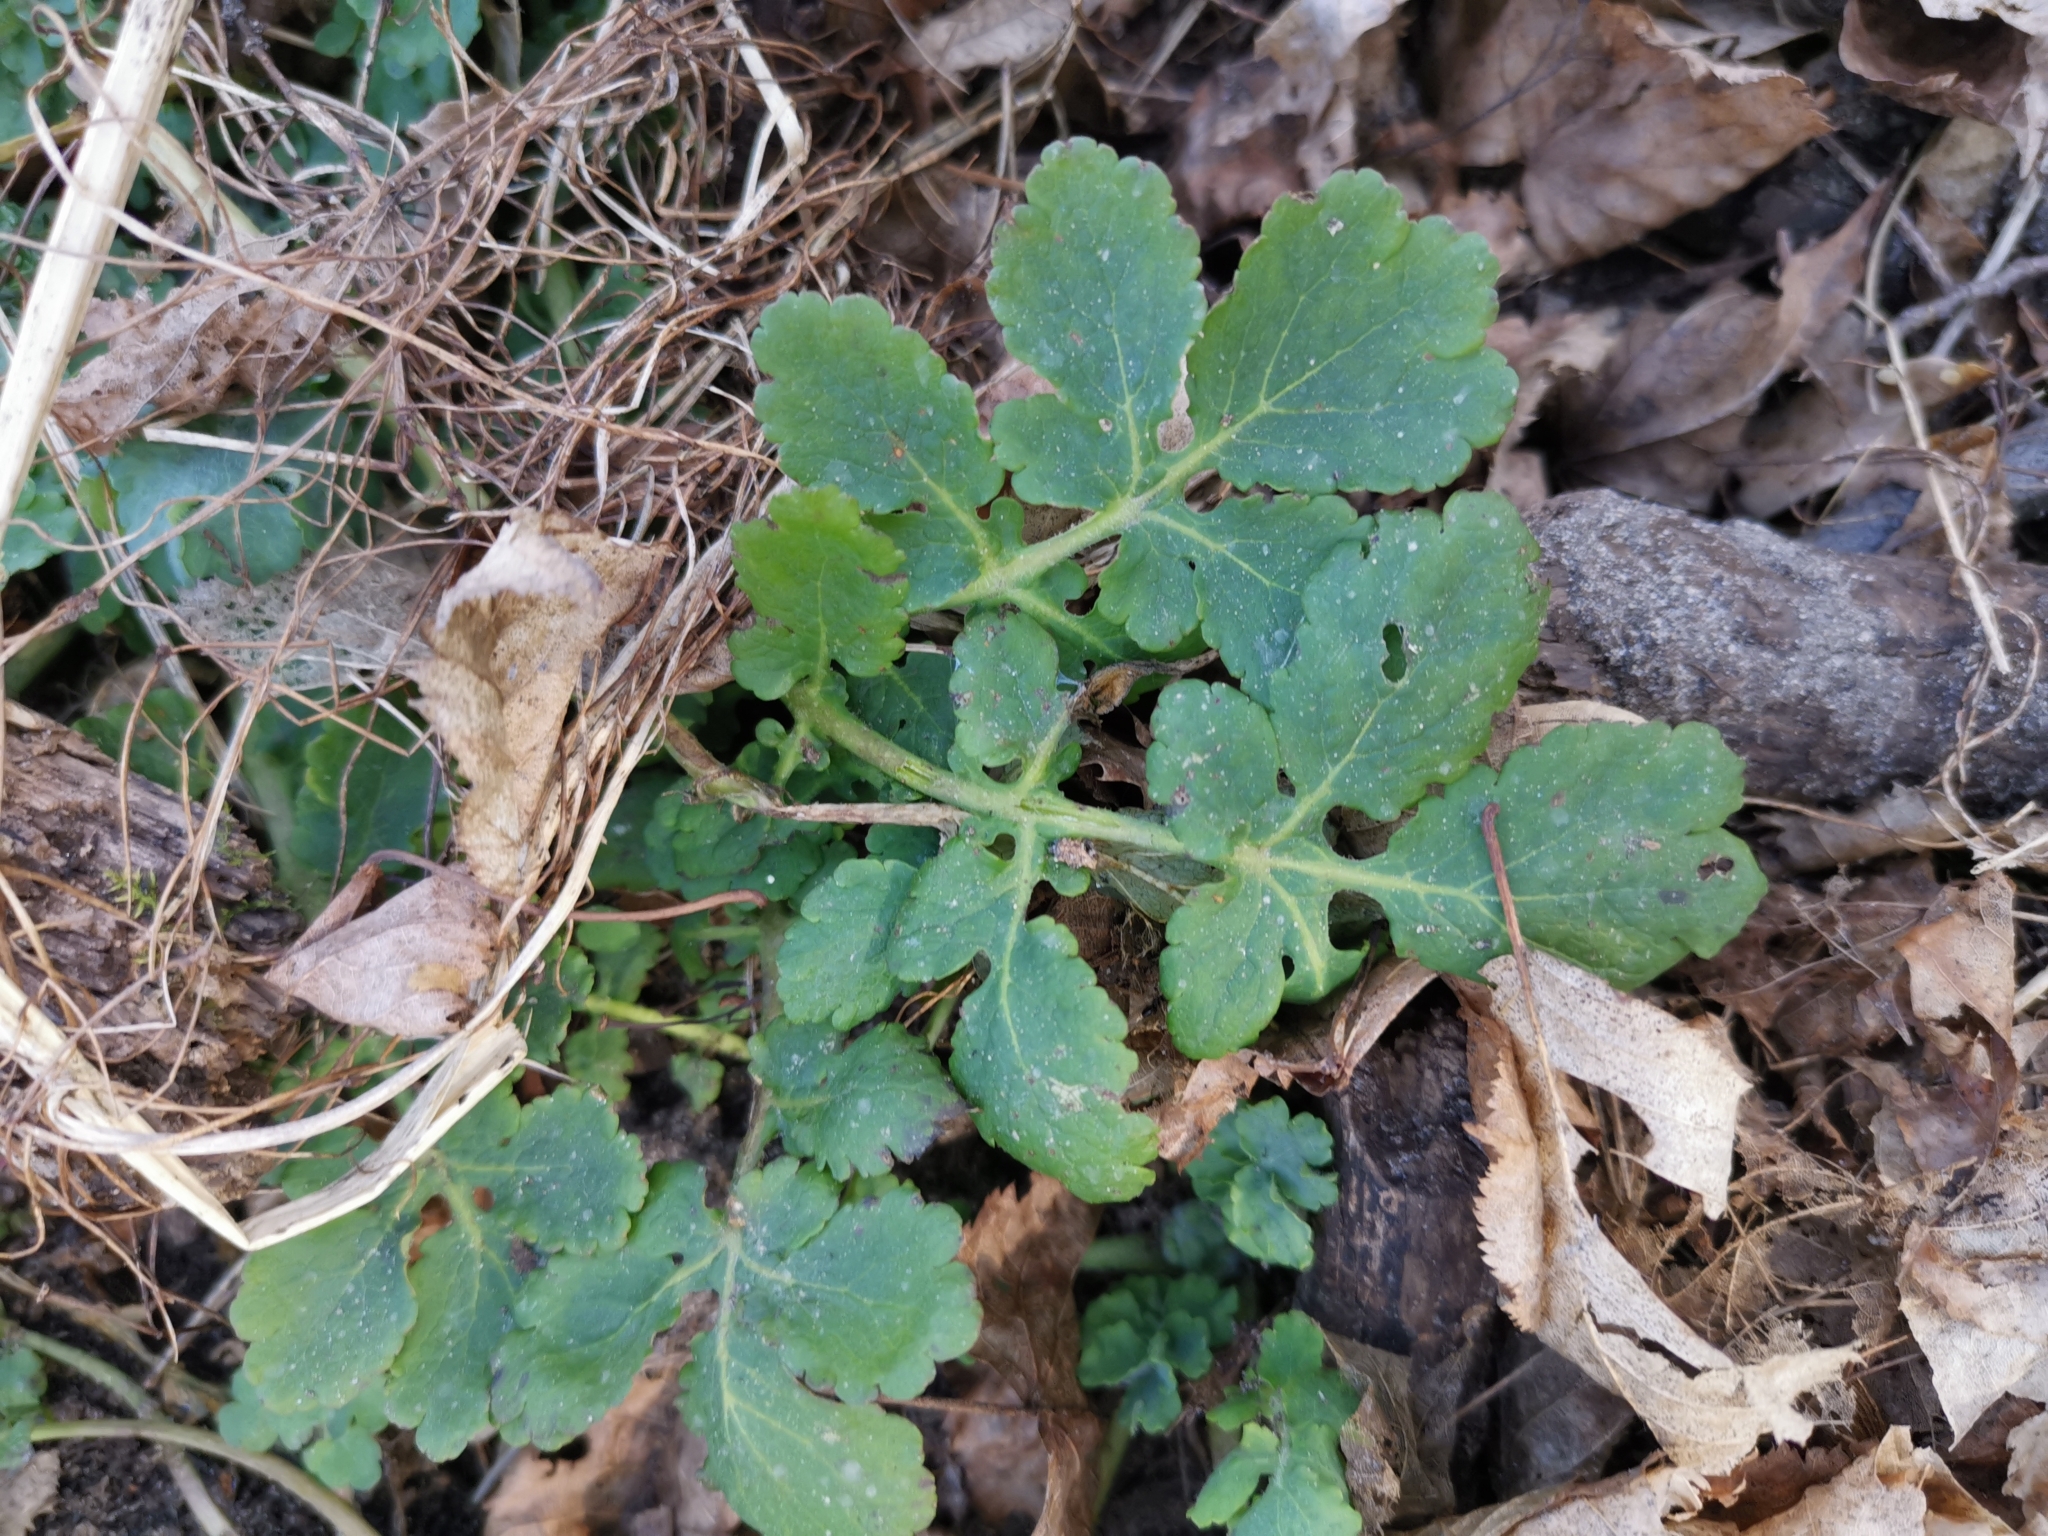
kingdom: Plantae
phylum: Tracheophyta
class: Magnoliopsida
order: Ranunculales
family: Papaveraceae
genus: Chelidonium
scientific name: Chelidonium majus
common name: Greater celandine
